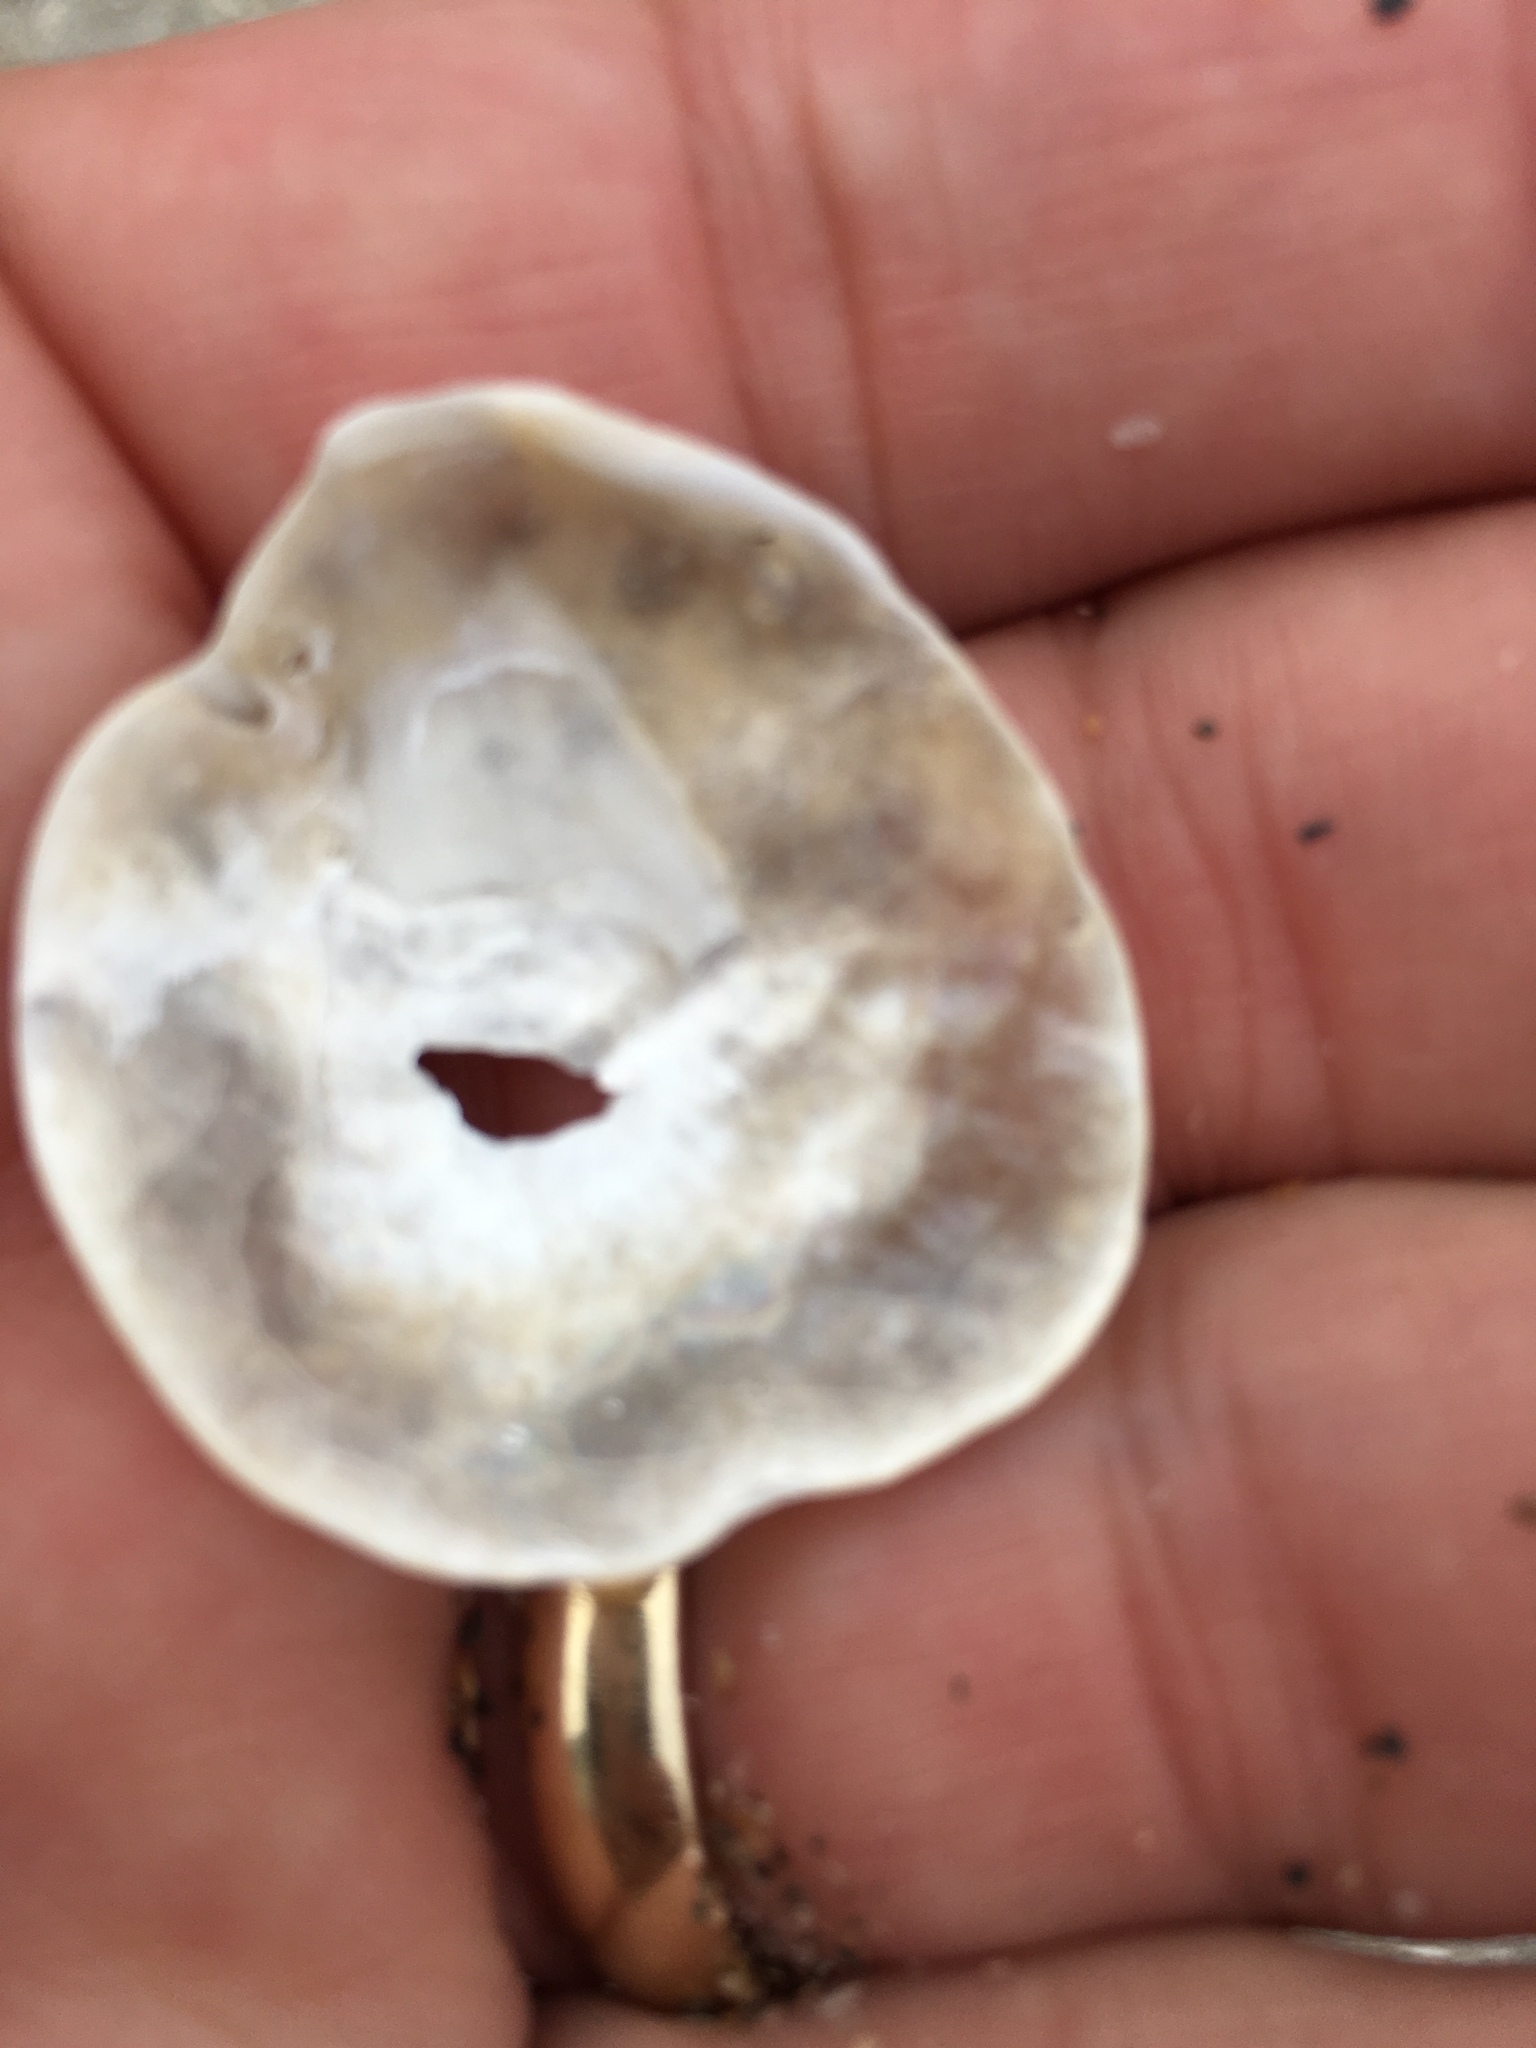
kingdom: Animalia
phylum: Mollusca
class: Bivalvia
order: Pectinida
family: Anomiidae
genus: Anomia
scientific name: Anomia simplex
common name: Common jingle shell
